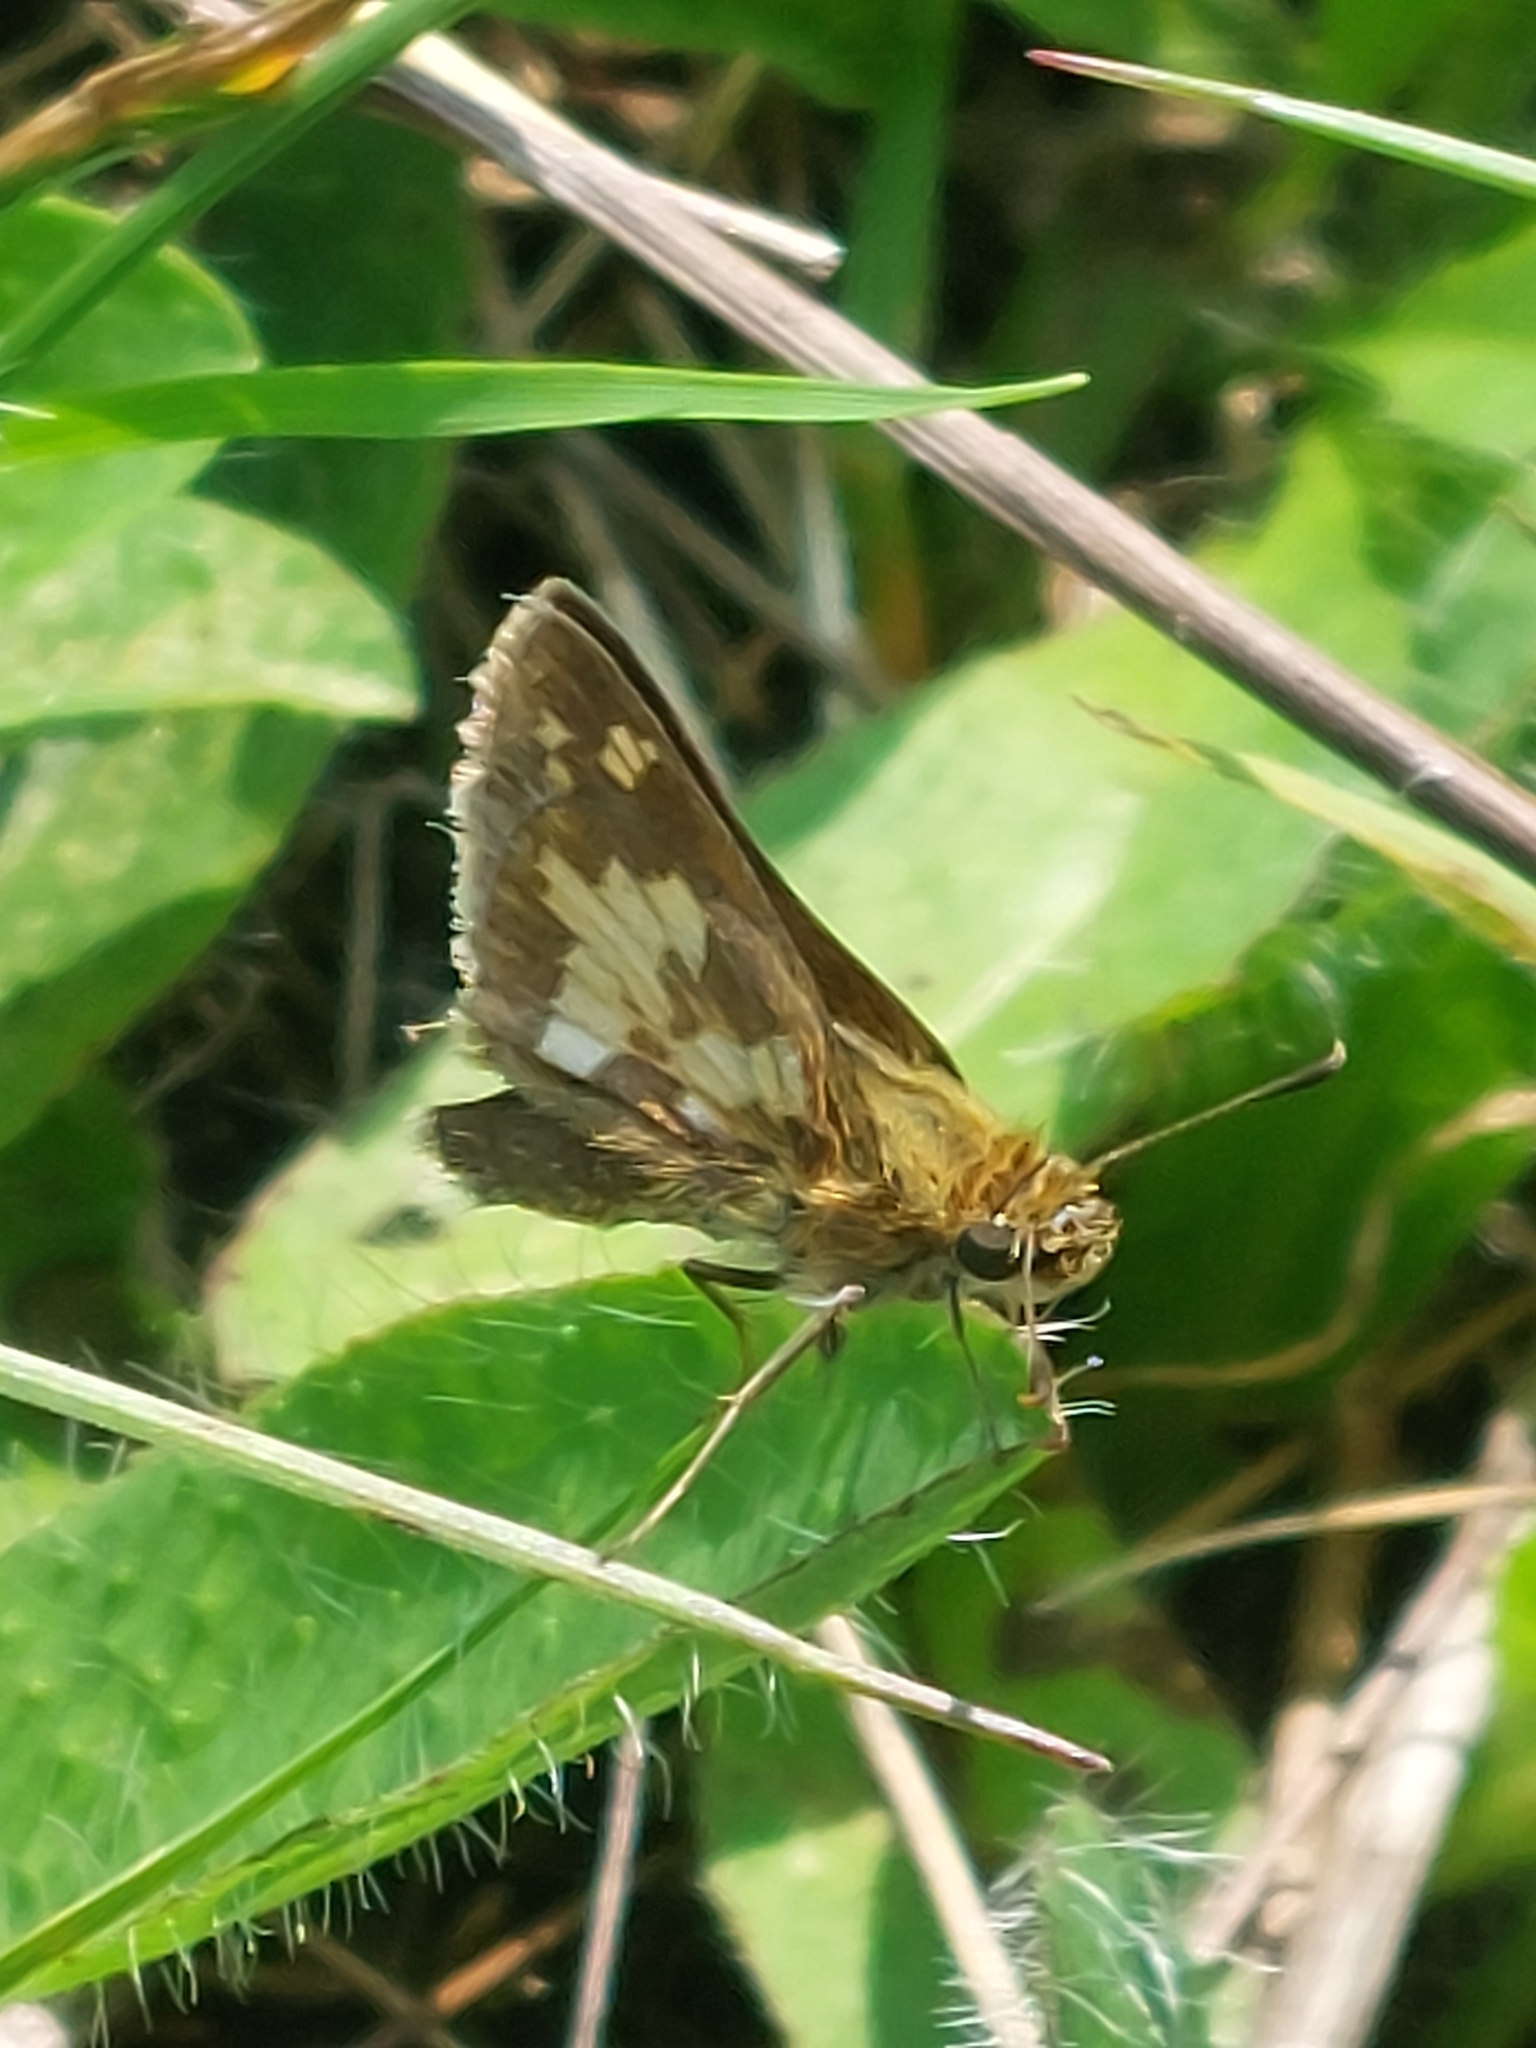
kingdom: Animalia
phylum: Arthropoda
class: Insecta
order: Lepidoptera
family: Hesperiidae
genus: Polites
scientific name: Polites coras
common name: Peck's skipper
